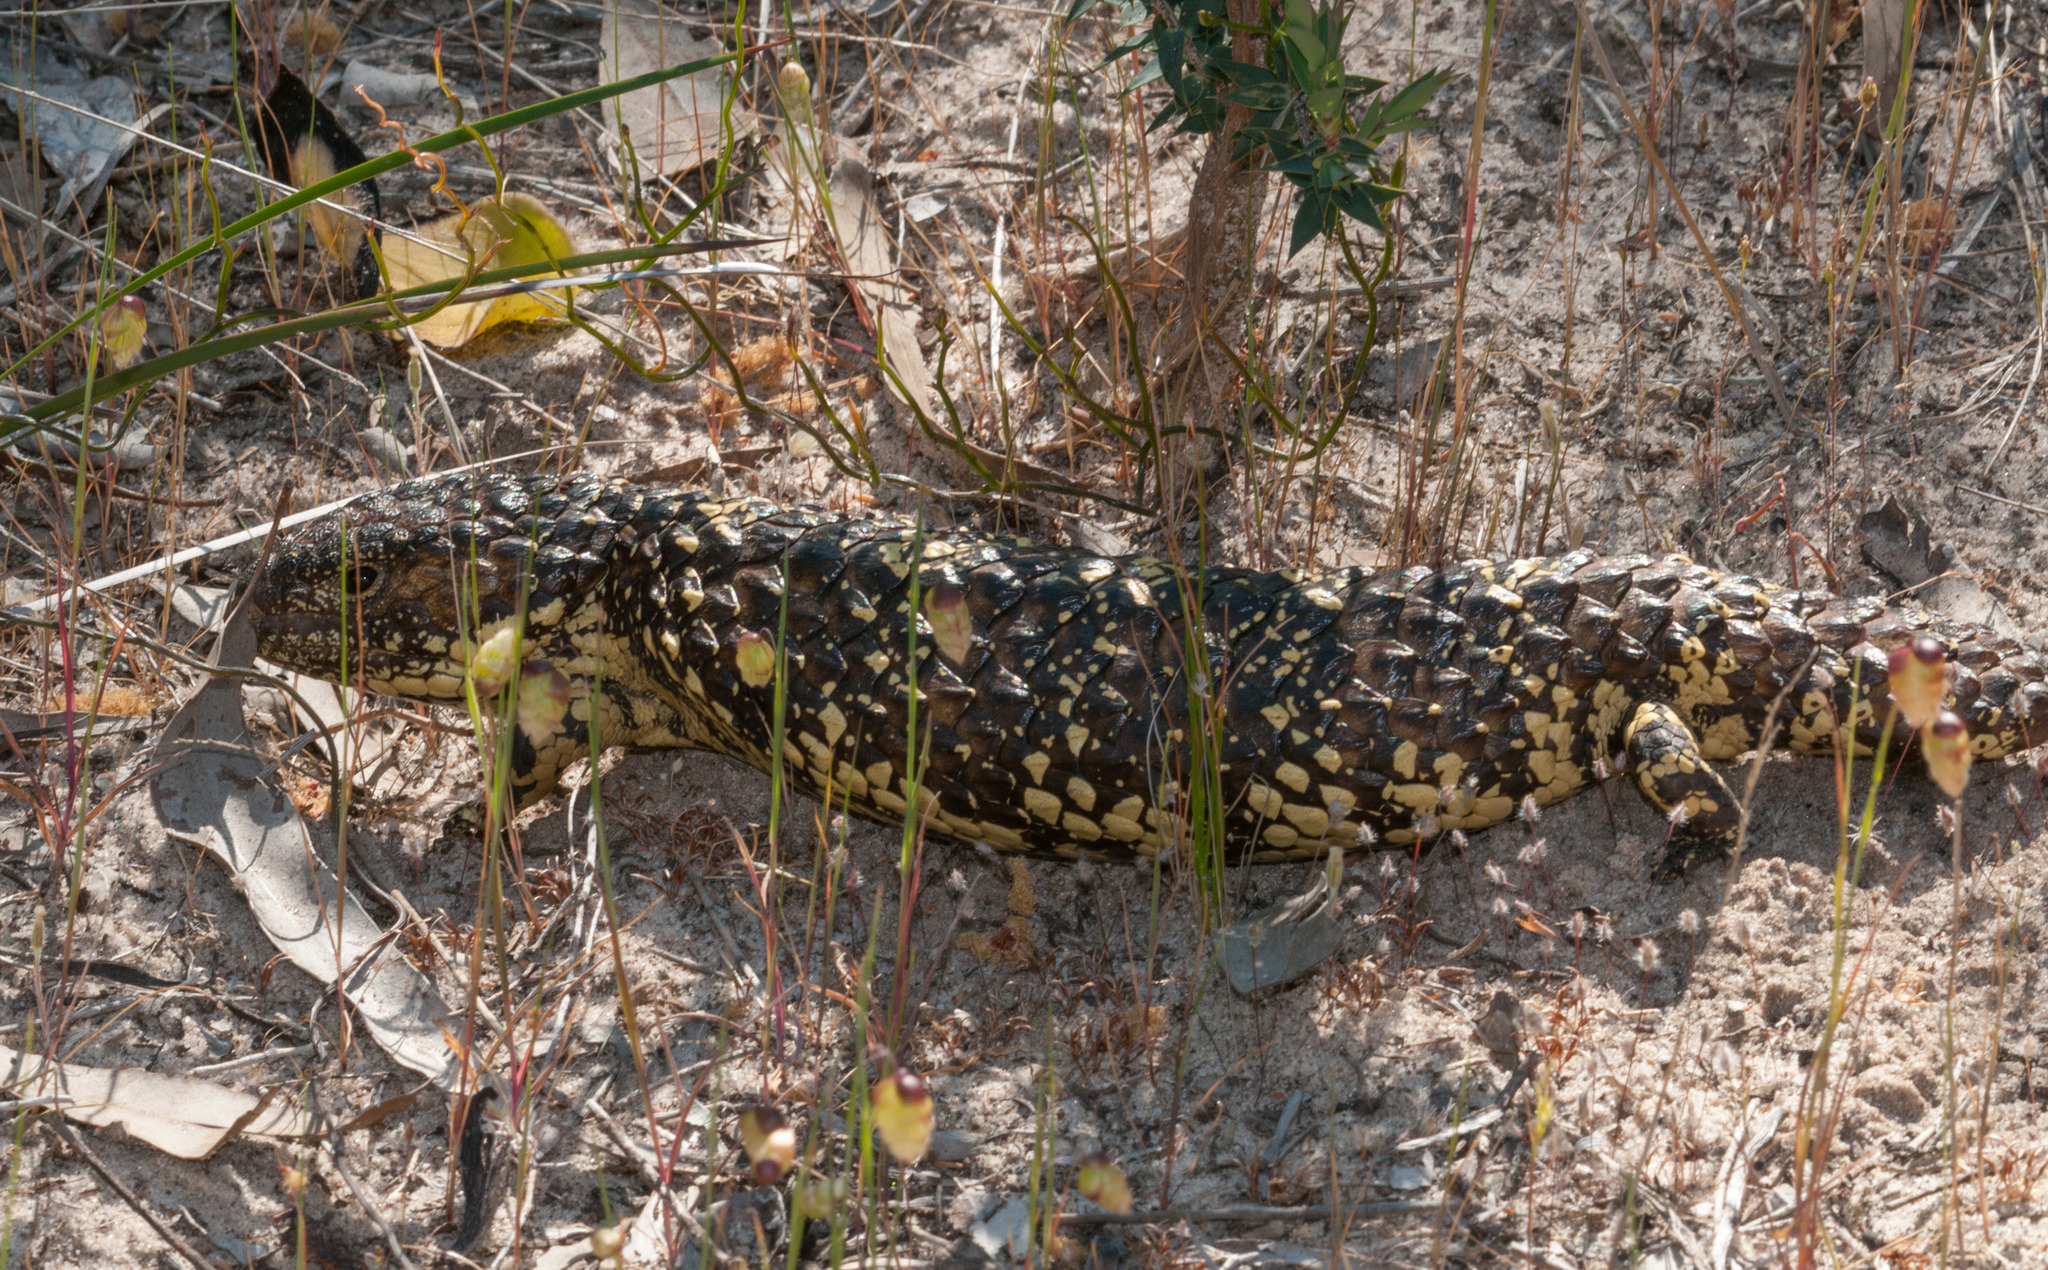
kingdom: Animalia
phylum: Chordata
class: Squamata
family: Scincidae
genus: Tiliqua
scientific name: Tiliqua rugosa
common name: Pinecone lizard
